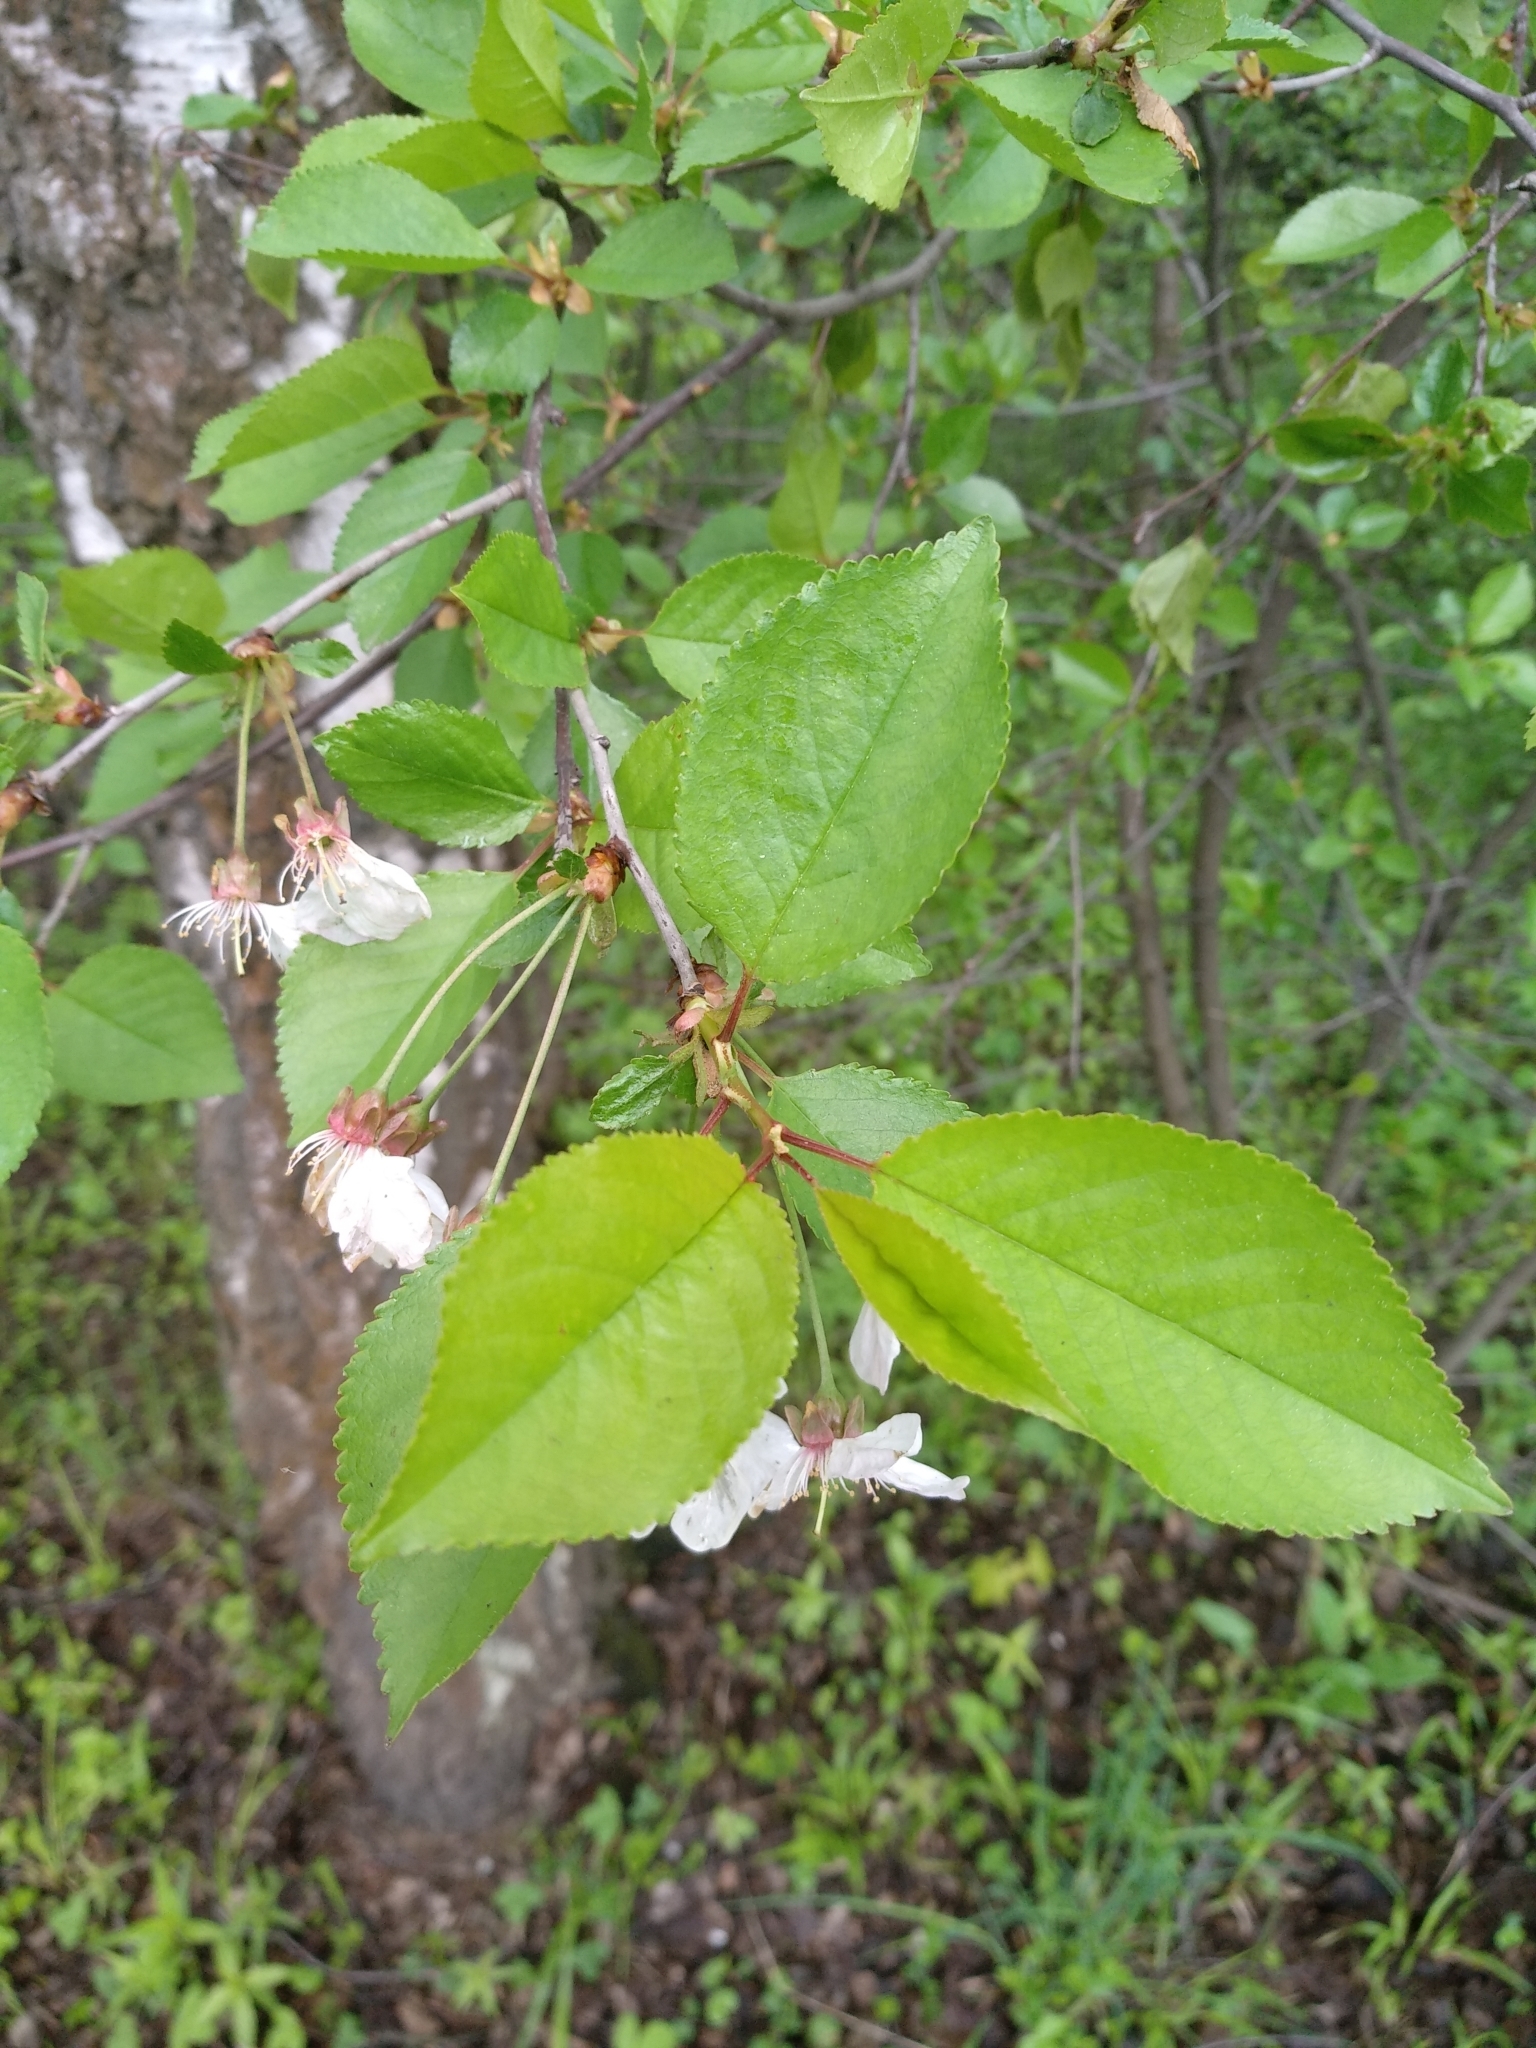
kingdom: Plantae
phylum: Tracheophyta
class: Magnoliopsida
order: Rosales
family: Rosaceae
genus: Prunus
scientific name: Prunus avium
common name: Sweet cherry
